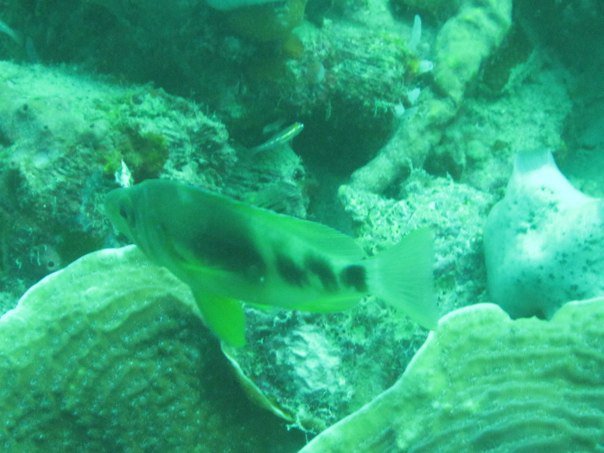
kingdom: Animalia
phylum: Chordata
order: Perciformes
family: Serranidae
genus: Hypoplectrus
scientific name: Hypoplectrus puella
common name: Barred hamlet
